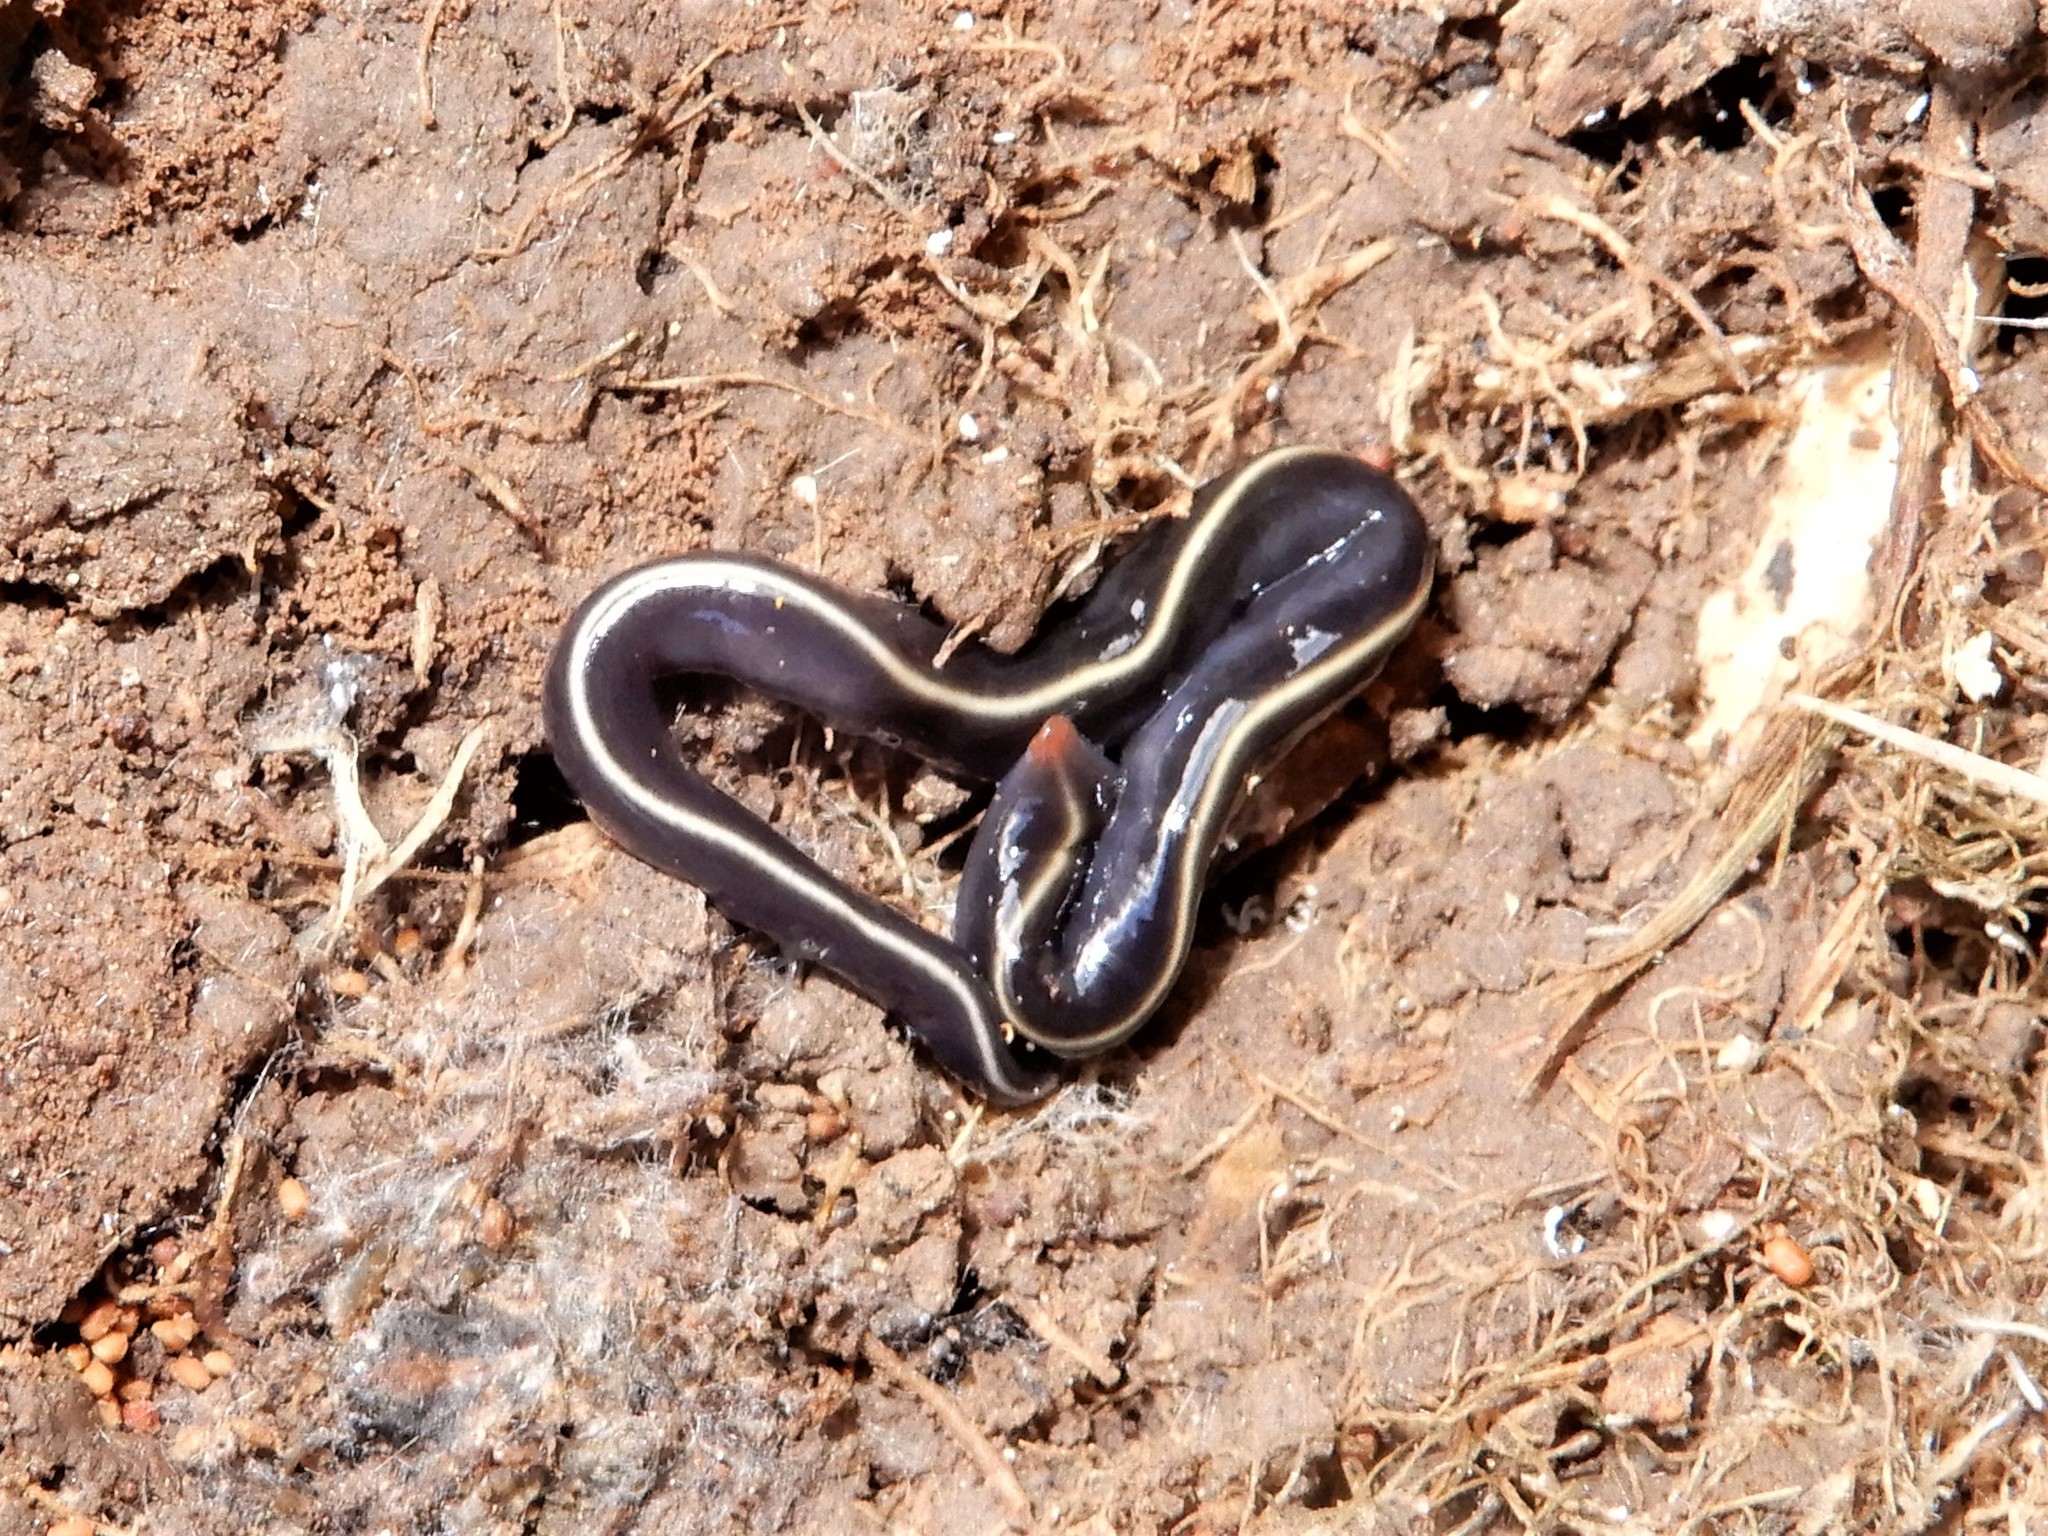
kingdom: Animalia
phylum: Platyhelminthes
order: Tricladida
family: Geoplanidae
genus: Caenoplana
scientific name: Caenoplana coerulea
